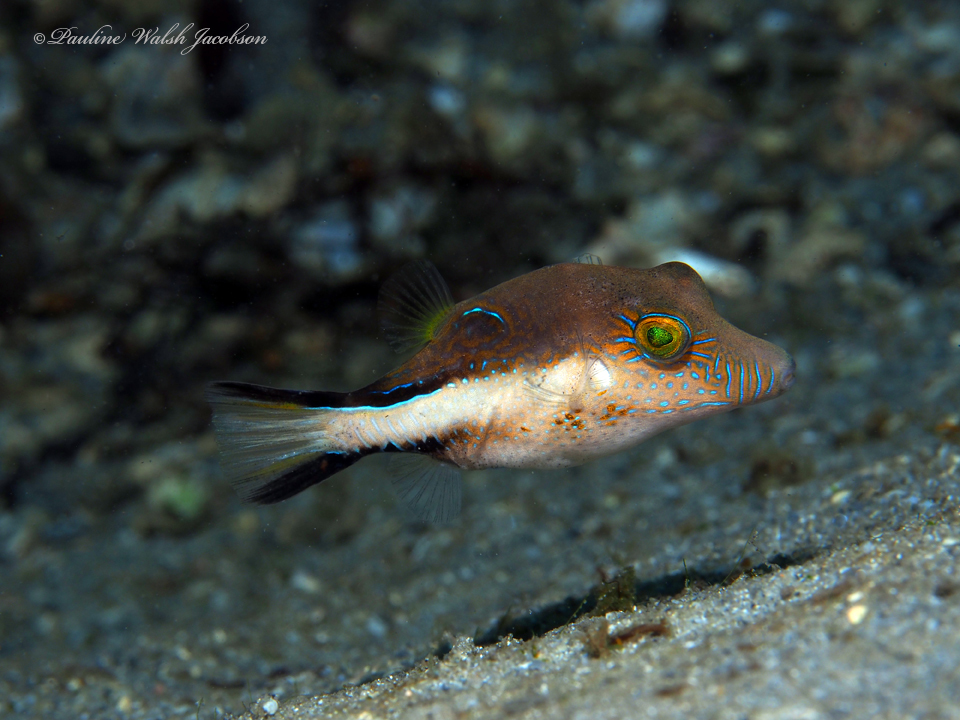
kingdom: Animalia
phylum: Chordata
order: Tetraodontiformes
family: Tetraodontidae
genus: Canthigaster
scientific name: Canthigaster rostrata
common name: Caribbean sharpnose-puffer
